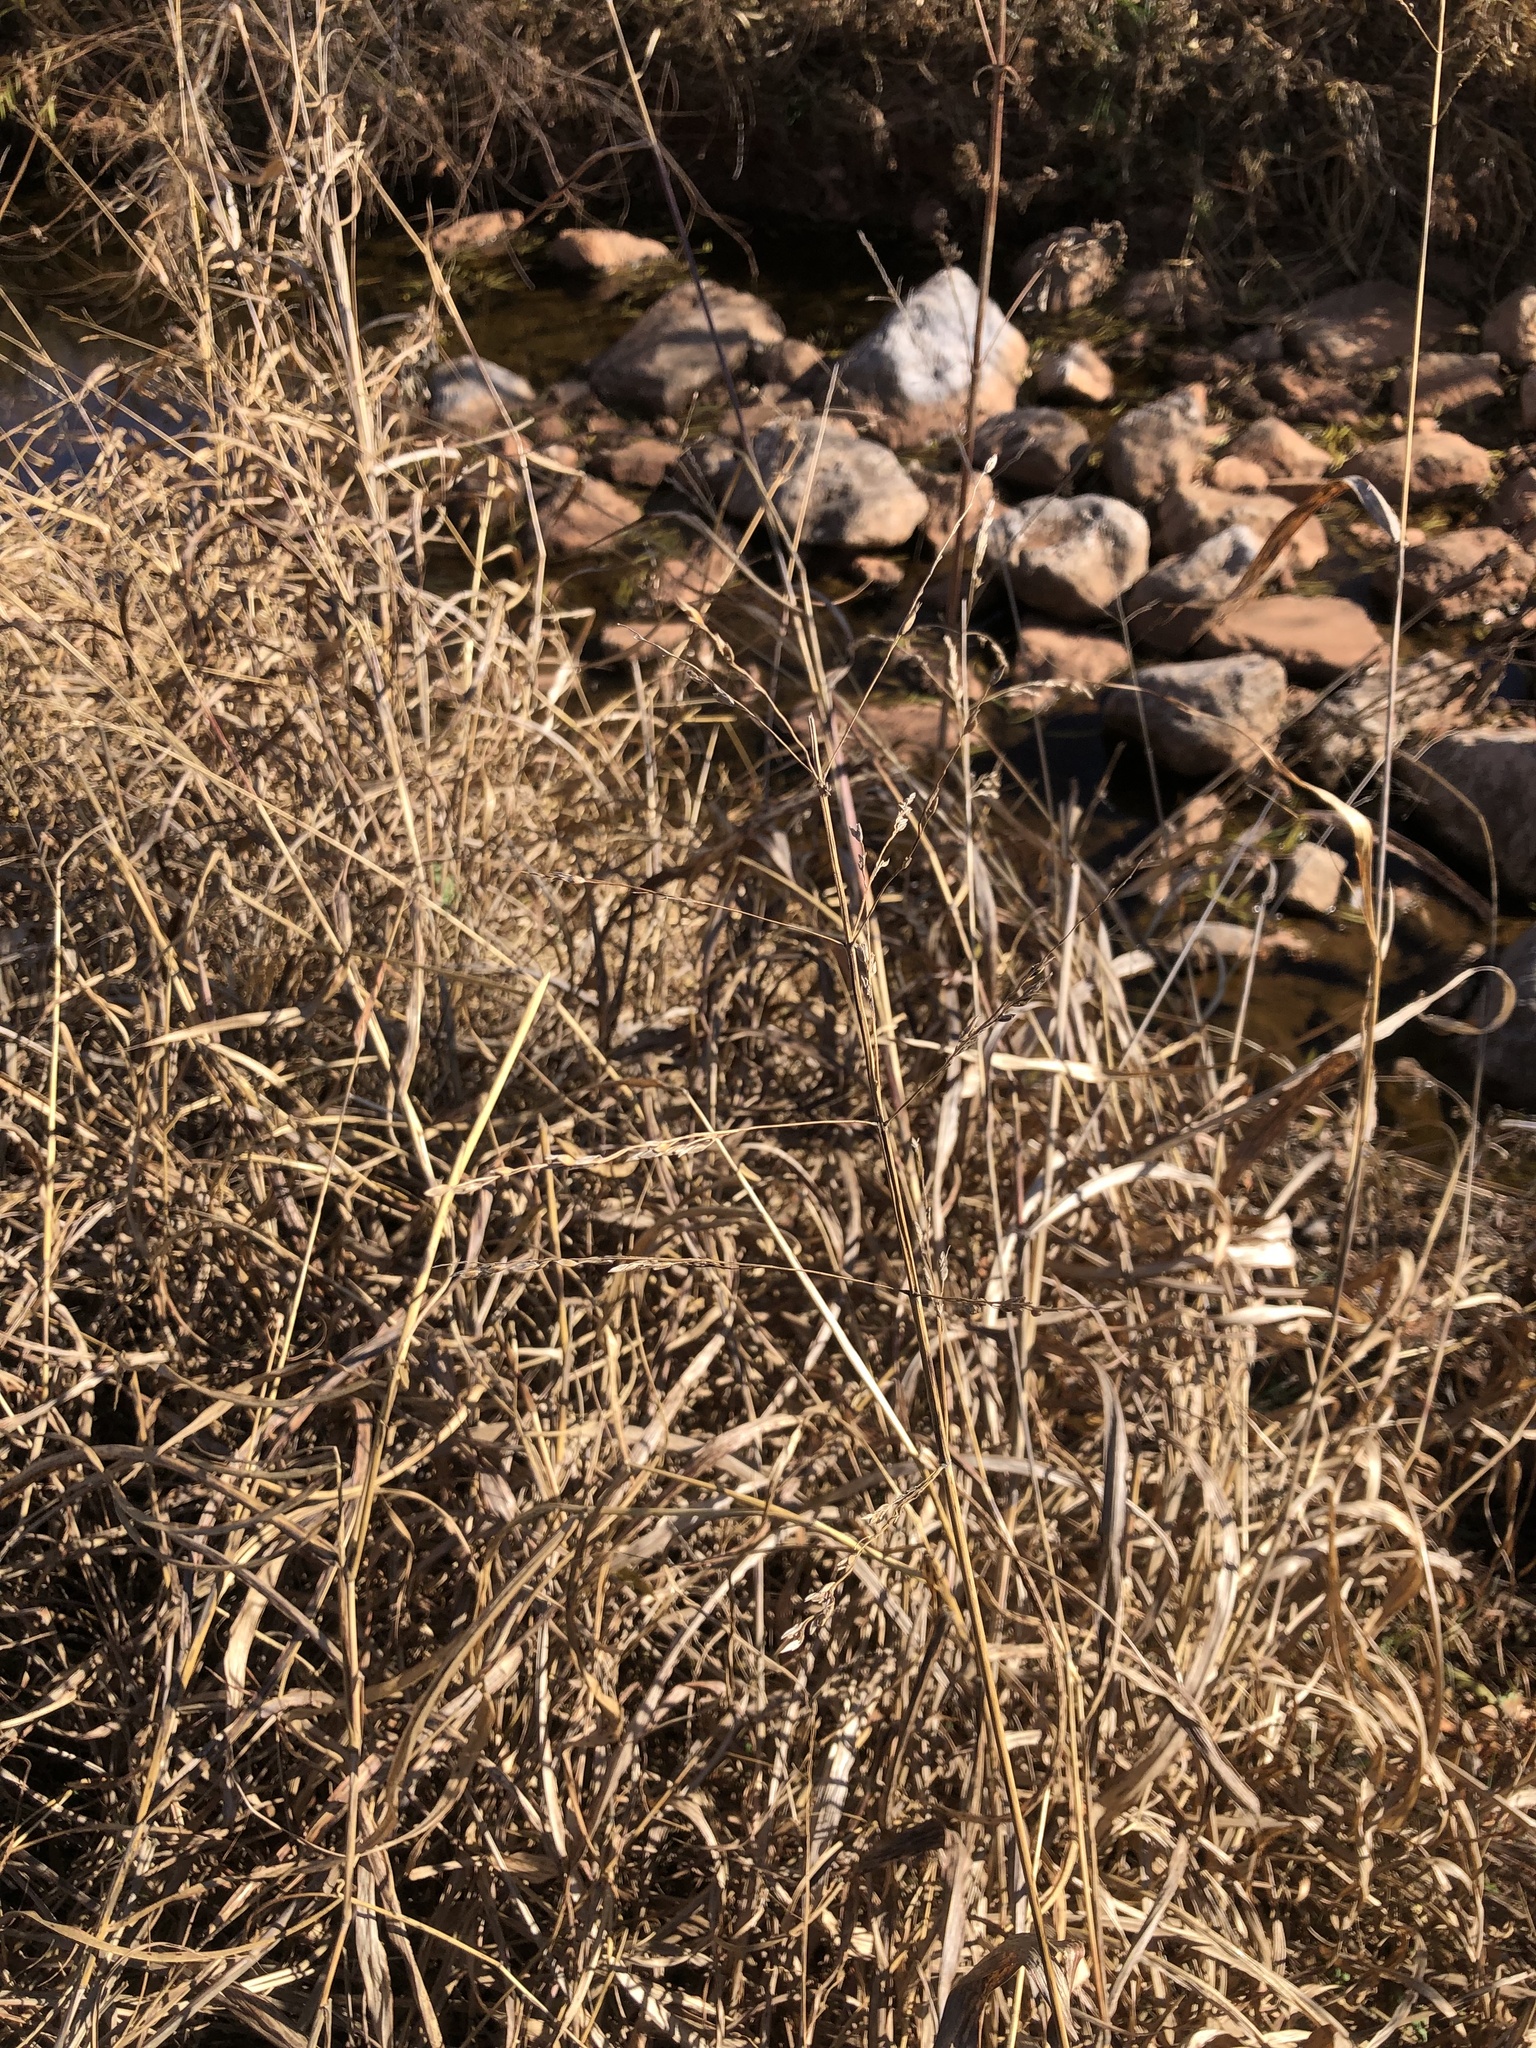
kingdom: Plantae
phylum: Tracheophyta
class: Liliopsida
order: Poales
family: Poaceae
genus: Sorghum
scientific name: Sorghum halepense
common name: Johnson-grass
